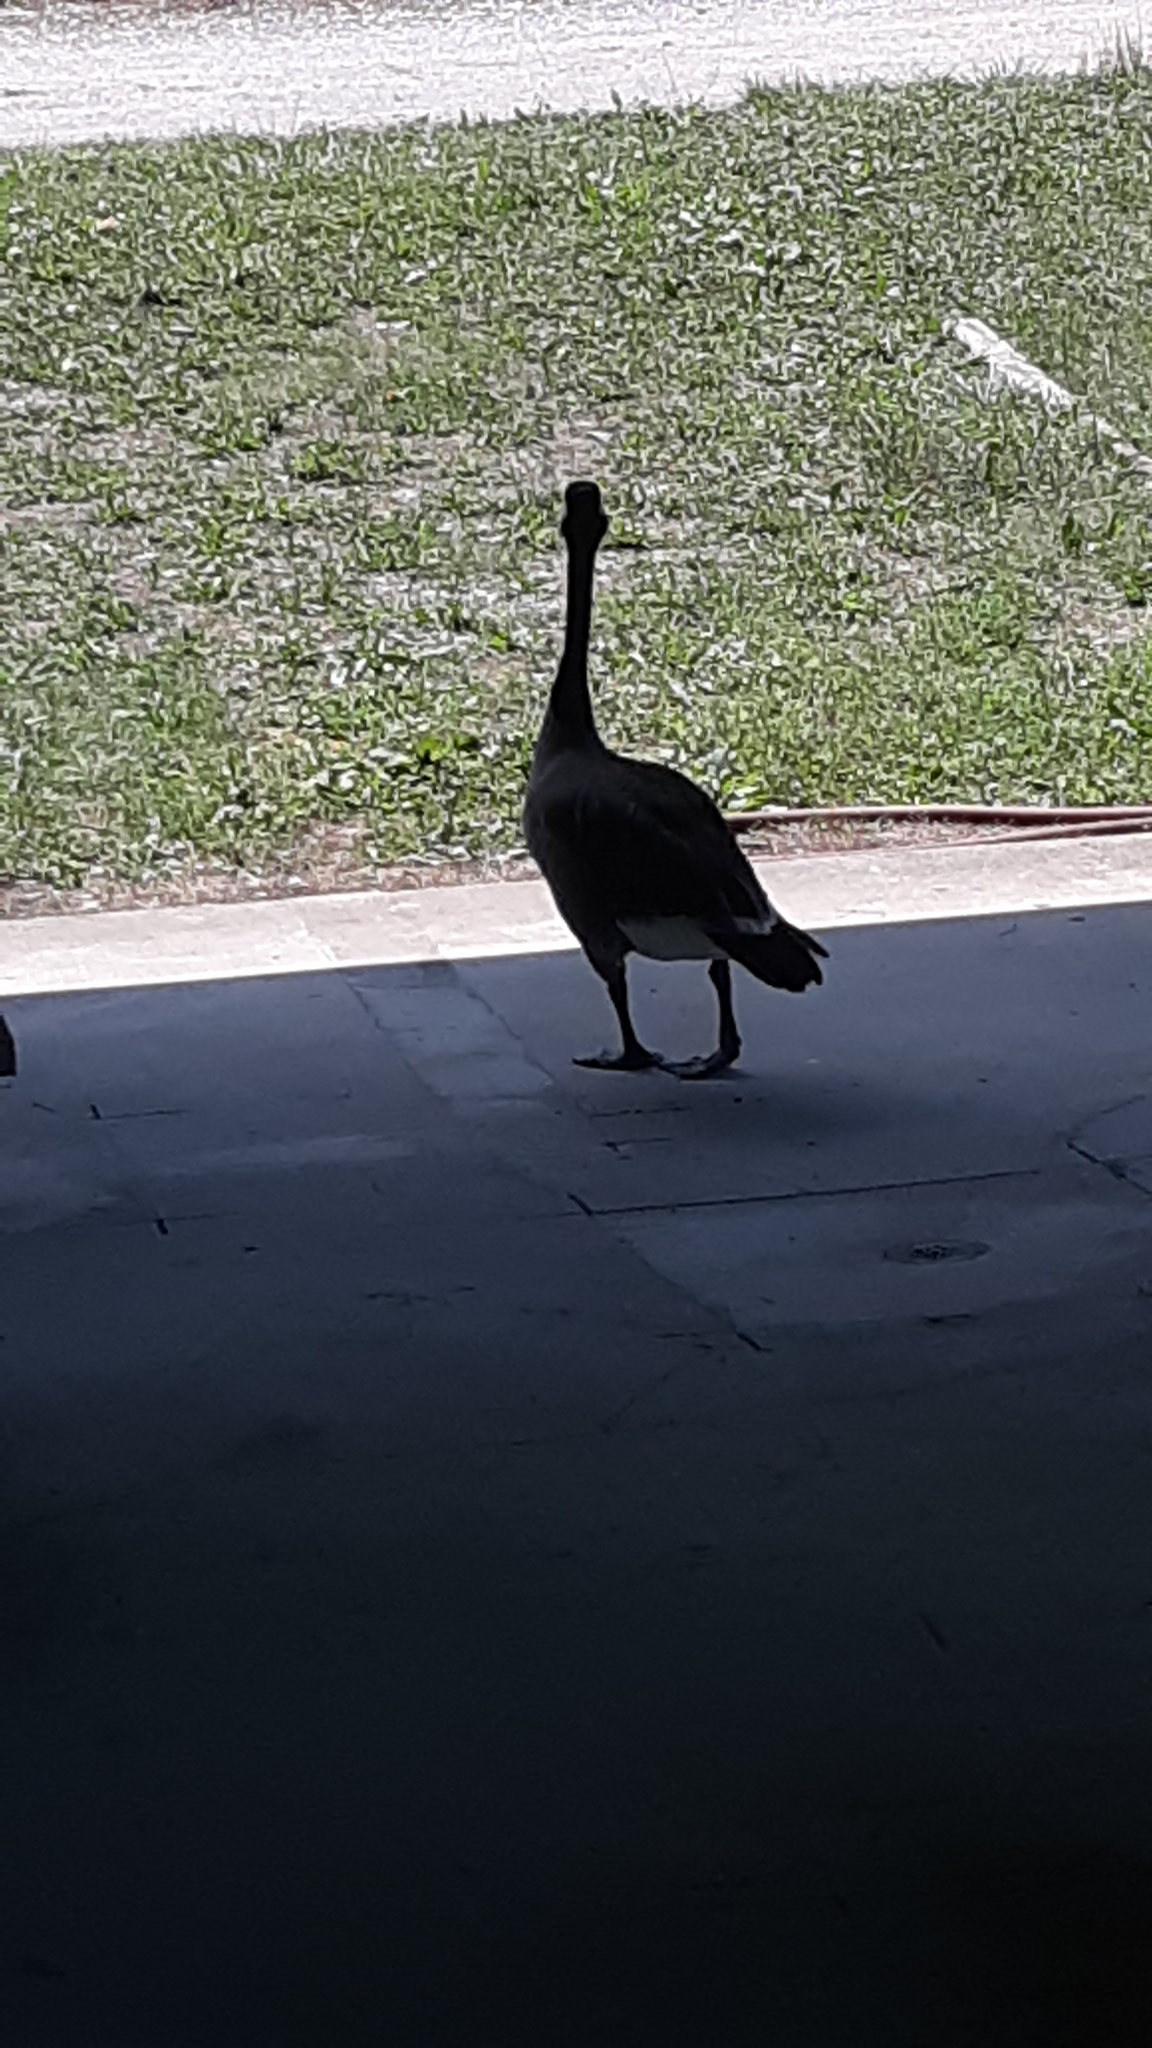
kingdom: Animalia
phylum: Chordata
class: Aves
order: Anseriformes
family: Anatidae
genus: Branta
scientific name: Branta canadensis
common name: Canada goose
